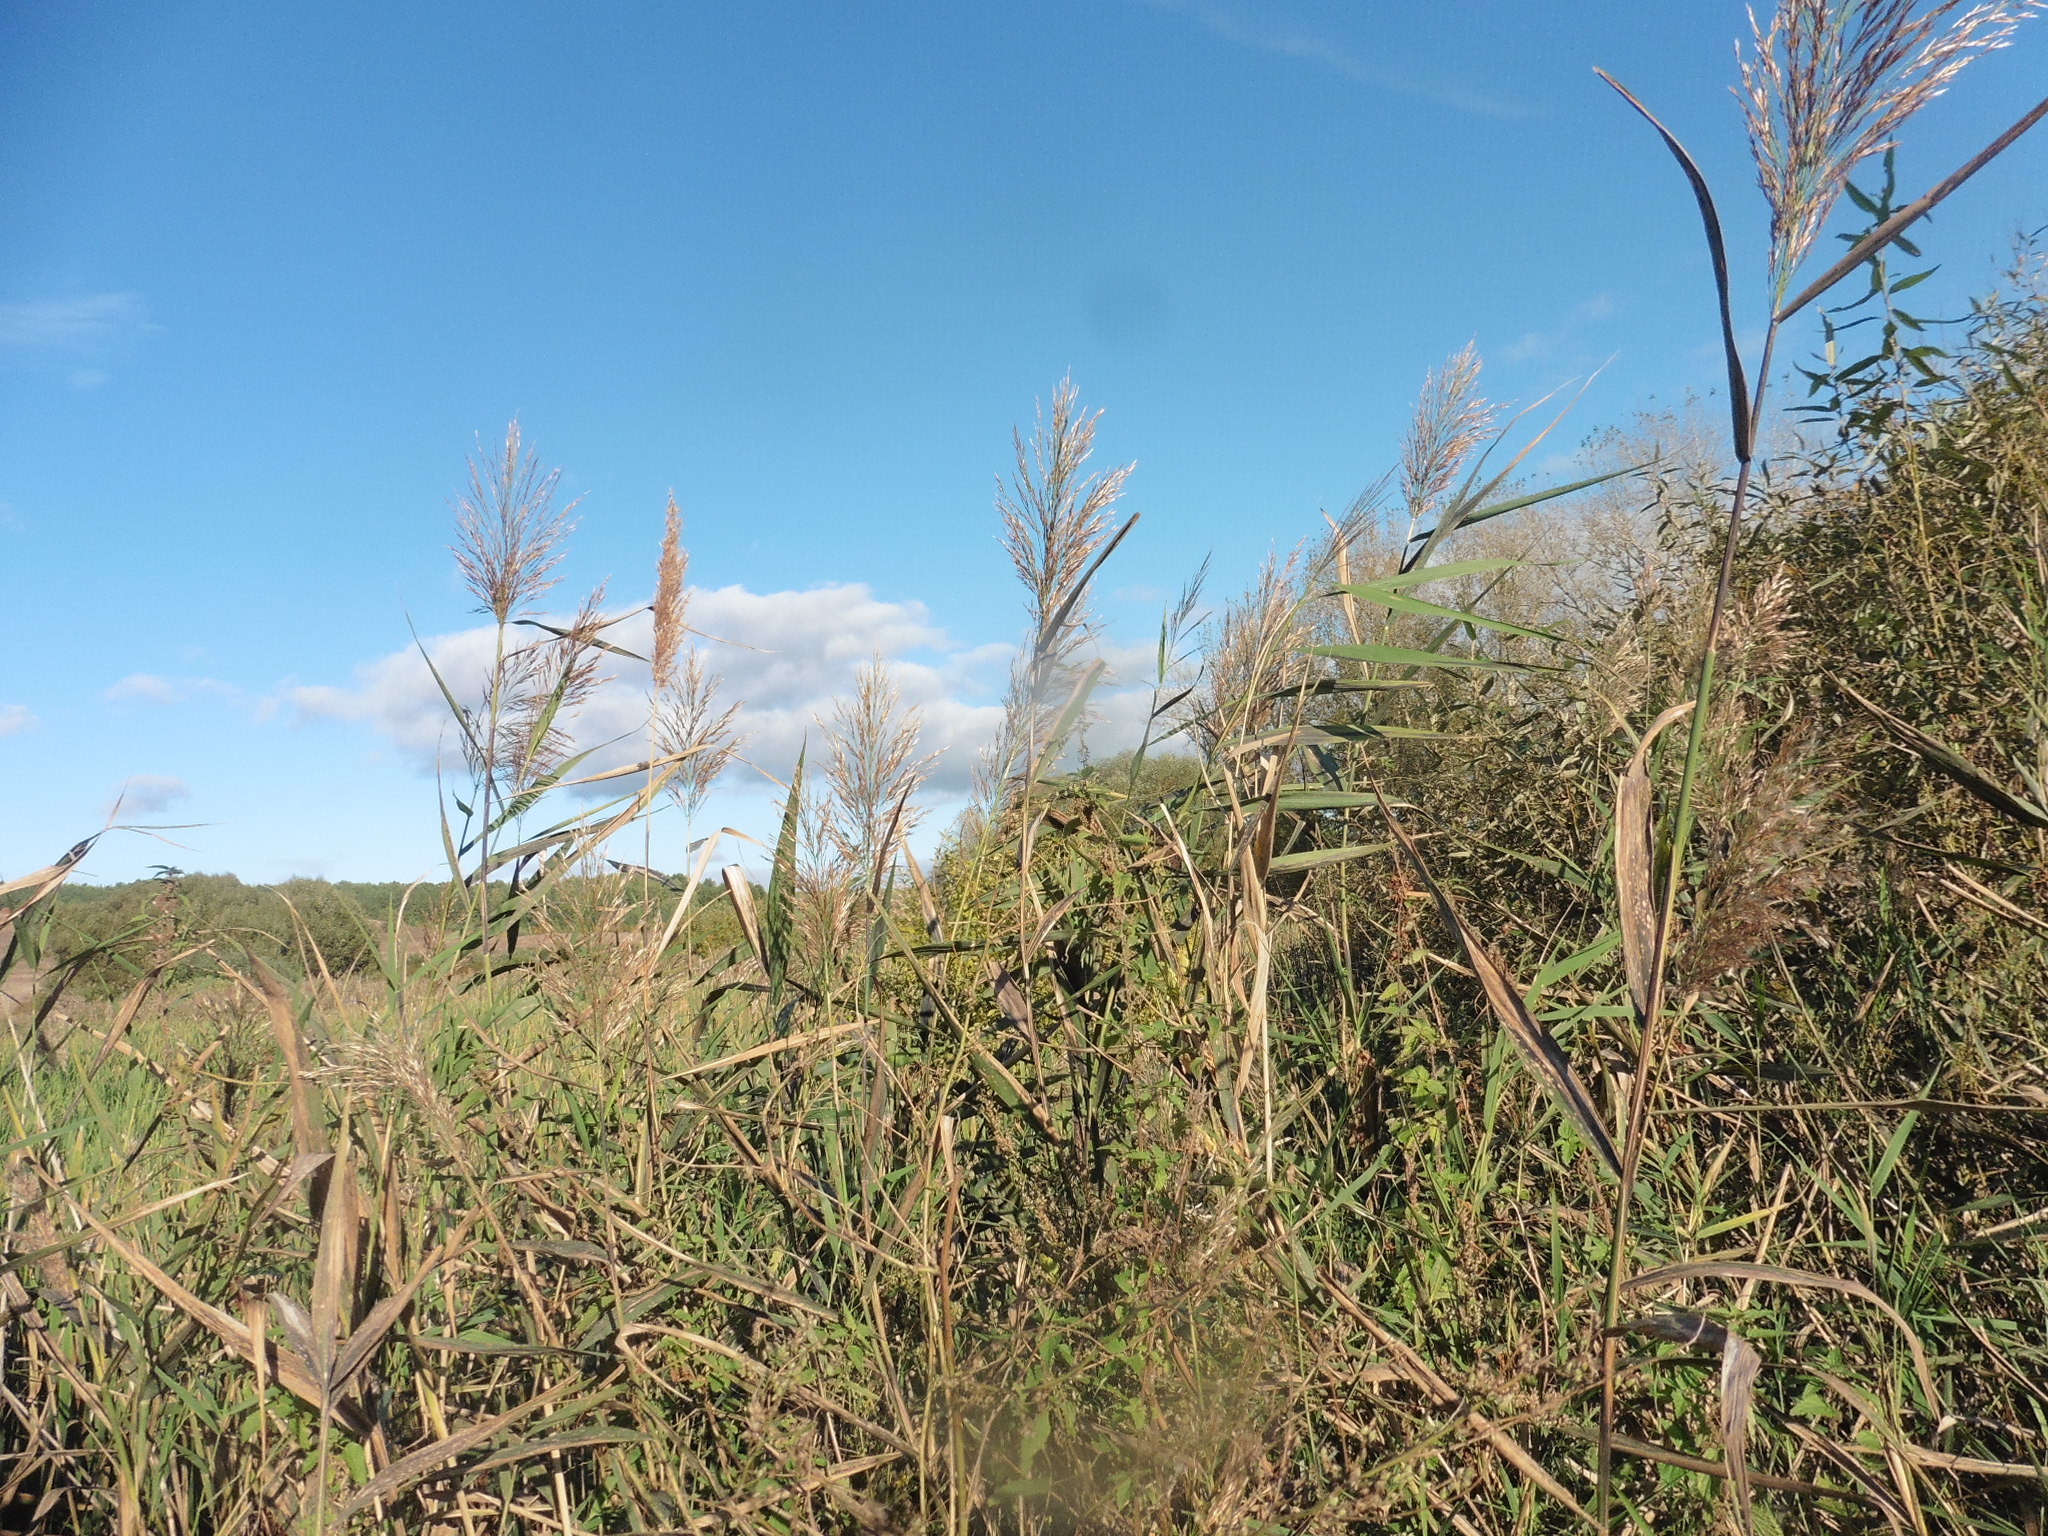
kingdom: Plantae
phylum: Tracheophyta
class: Liliopsida
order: Poales
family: Poaceae
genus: Phragmites
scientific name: Phragmites australis
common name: Common reed
